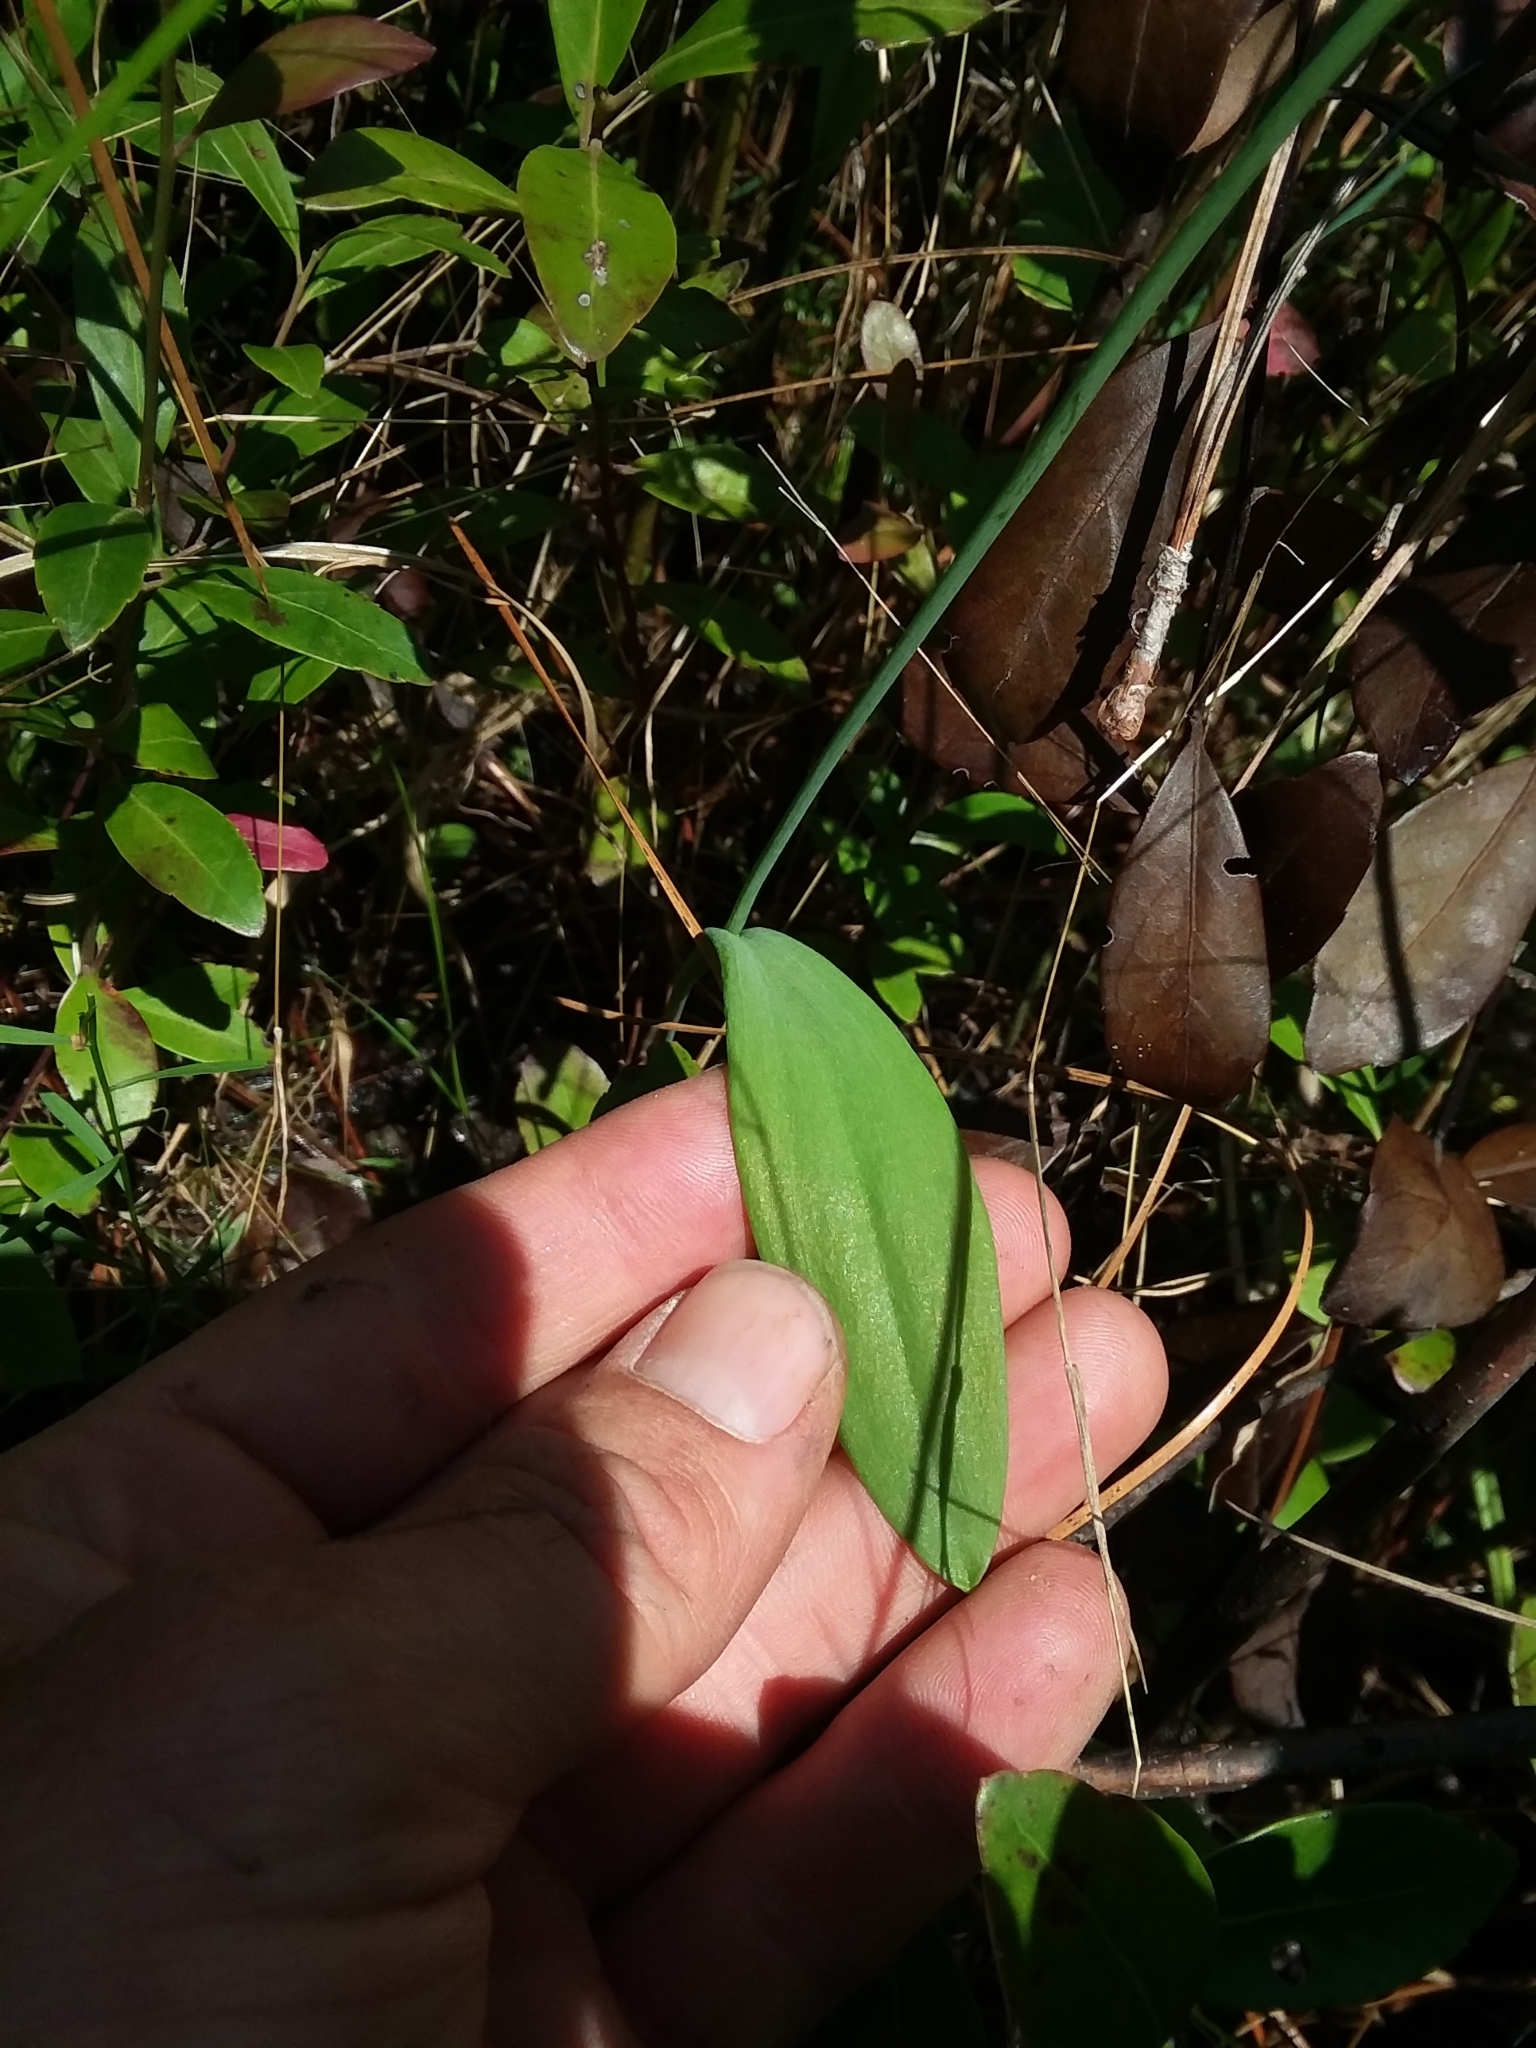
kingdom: Plantae
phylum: Tracheophyta
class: Liliopsida
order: Asparagales
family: Orchidaceae
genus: Pogonia
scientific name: Pogonia ophioglossoides
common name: Rose pogonia
